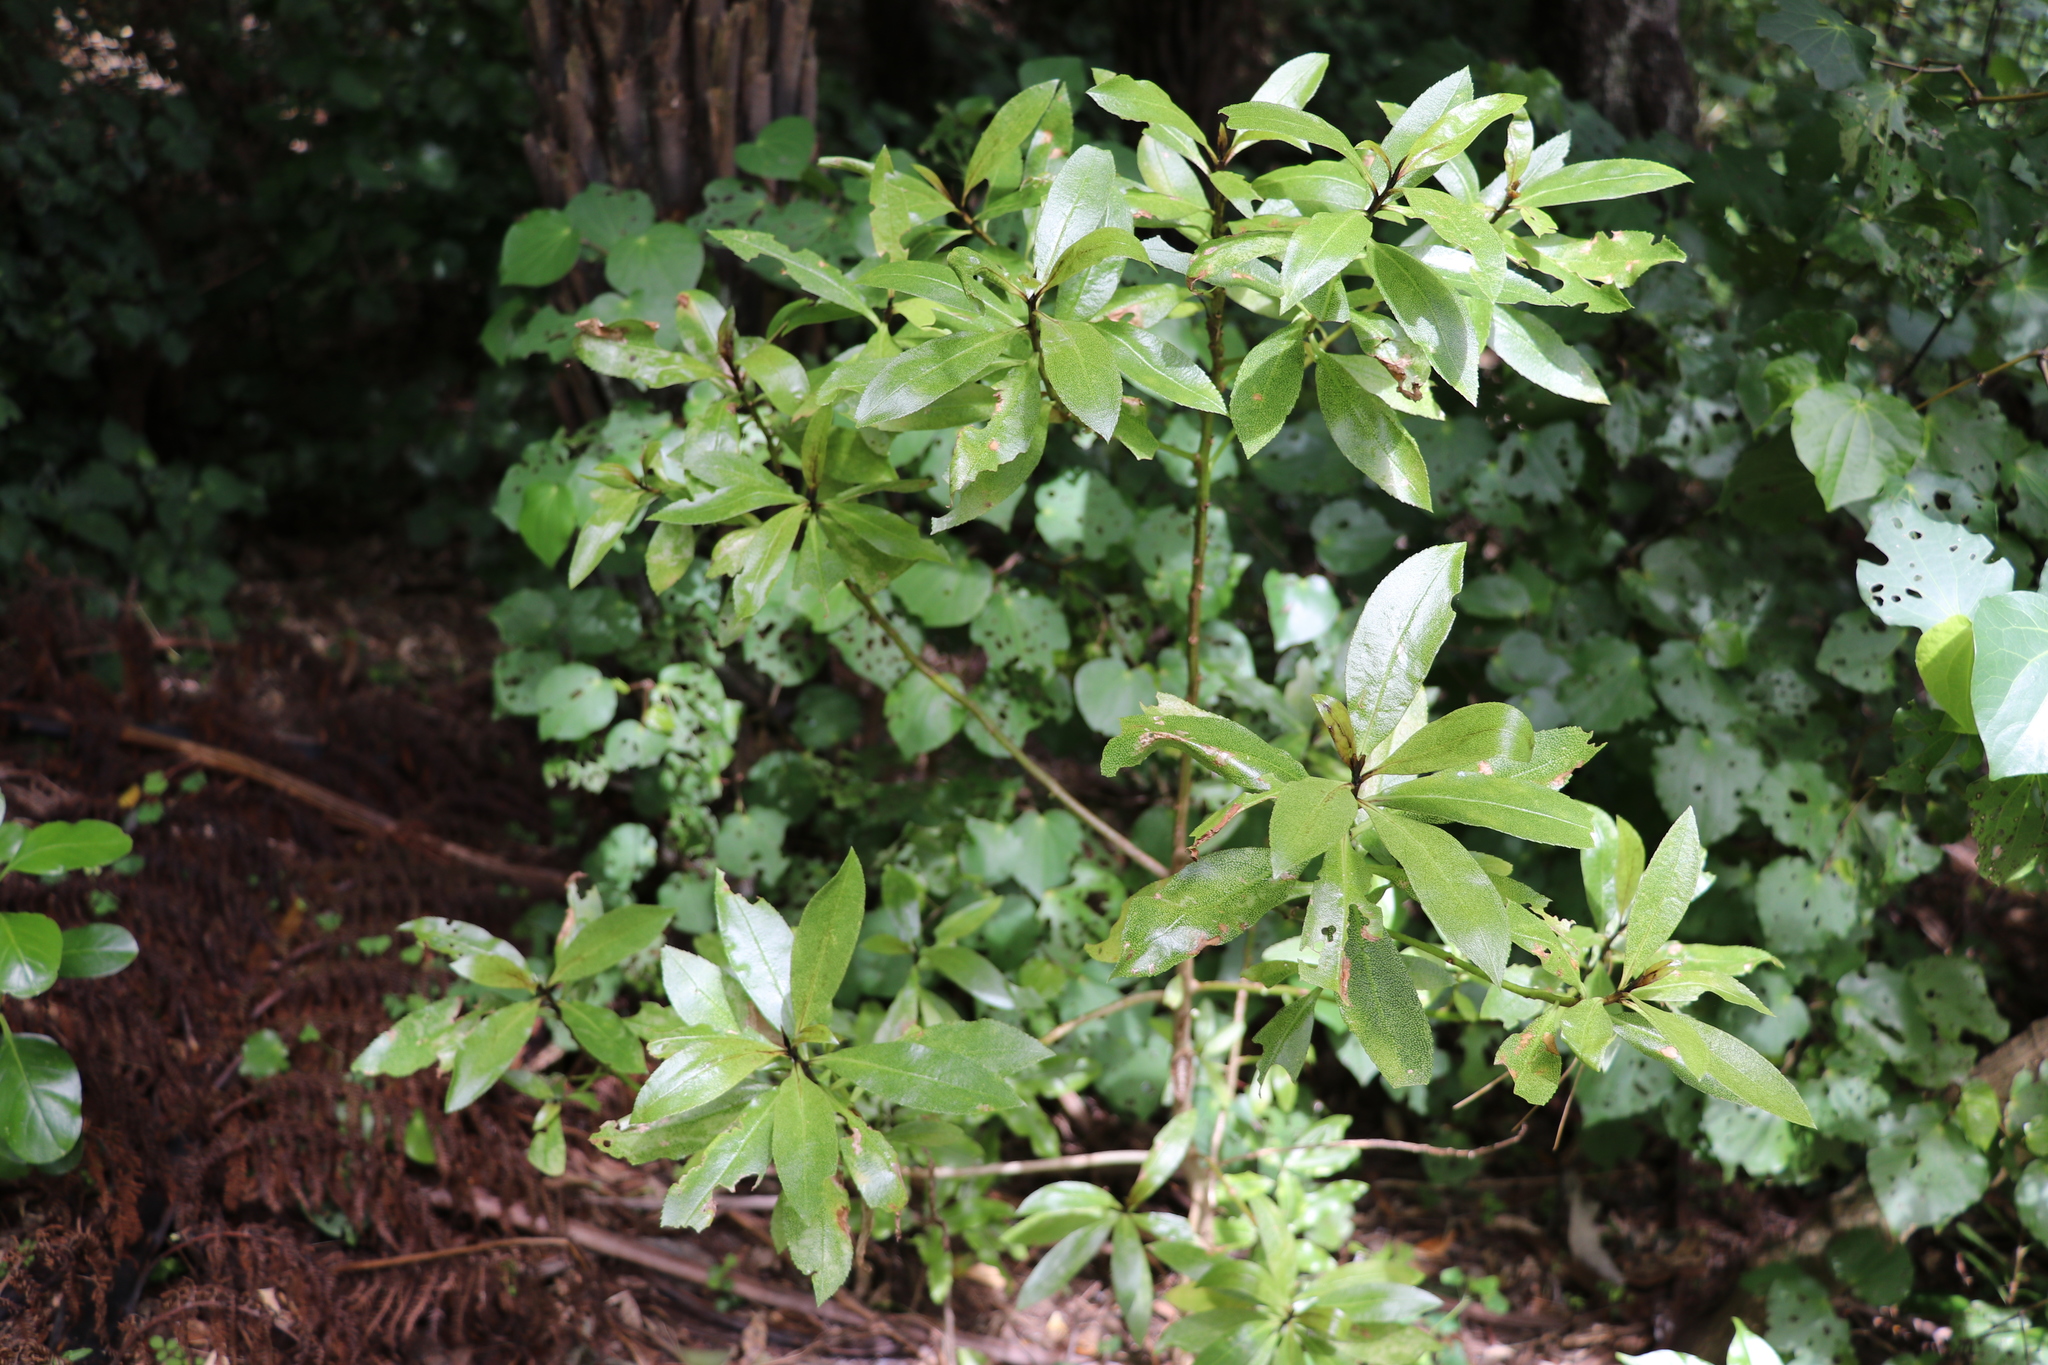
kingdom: Plantae
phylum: Tracheophyta
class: Magnoliopsida
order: Lamiales
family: Scrophulariaceae
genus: Myoporum
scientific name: Myoporum laetum
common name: Ngaio tree
